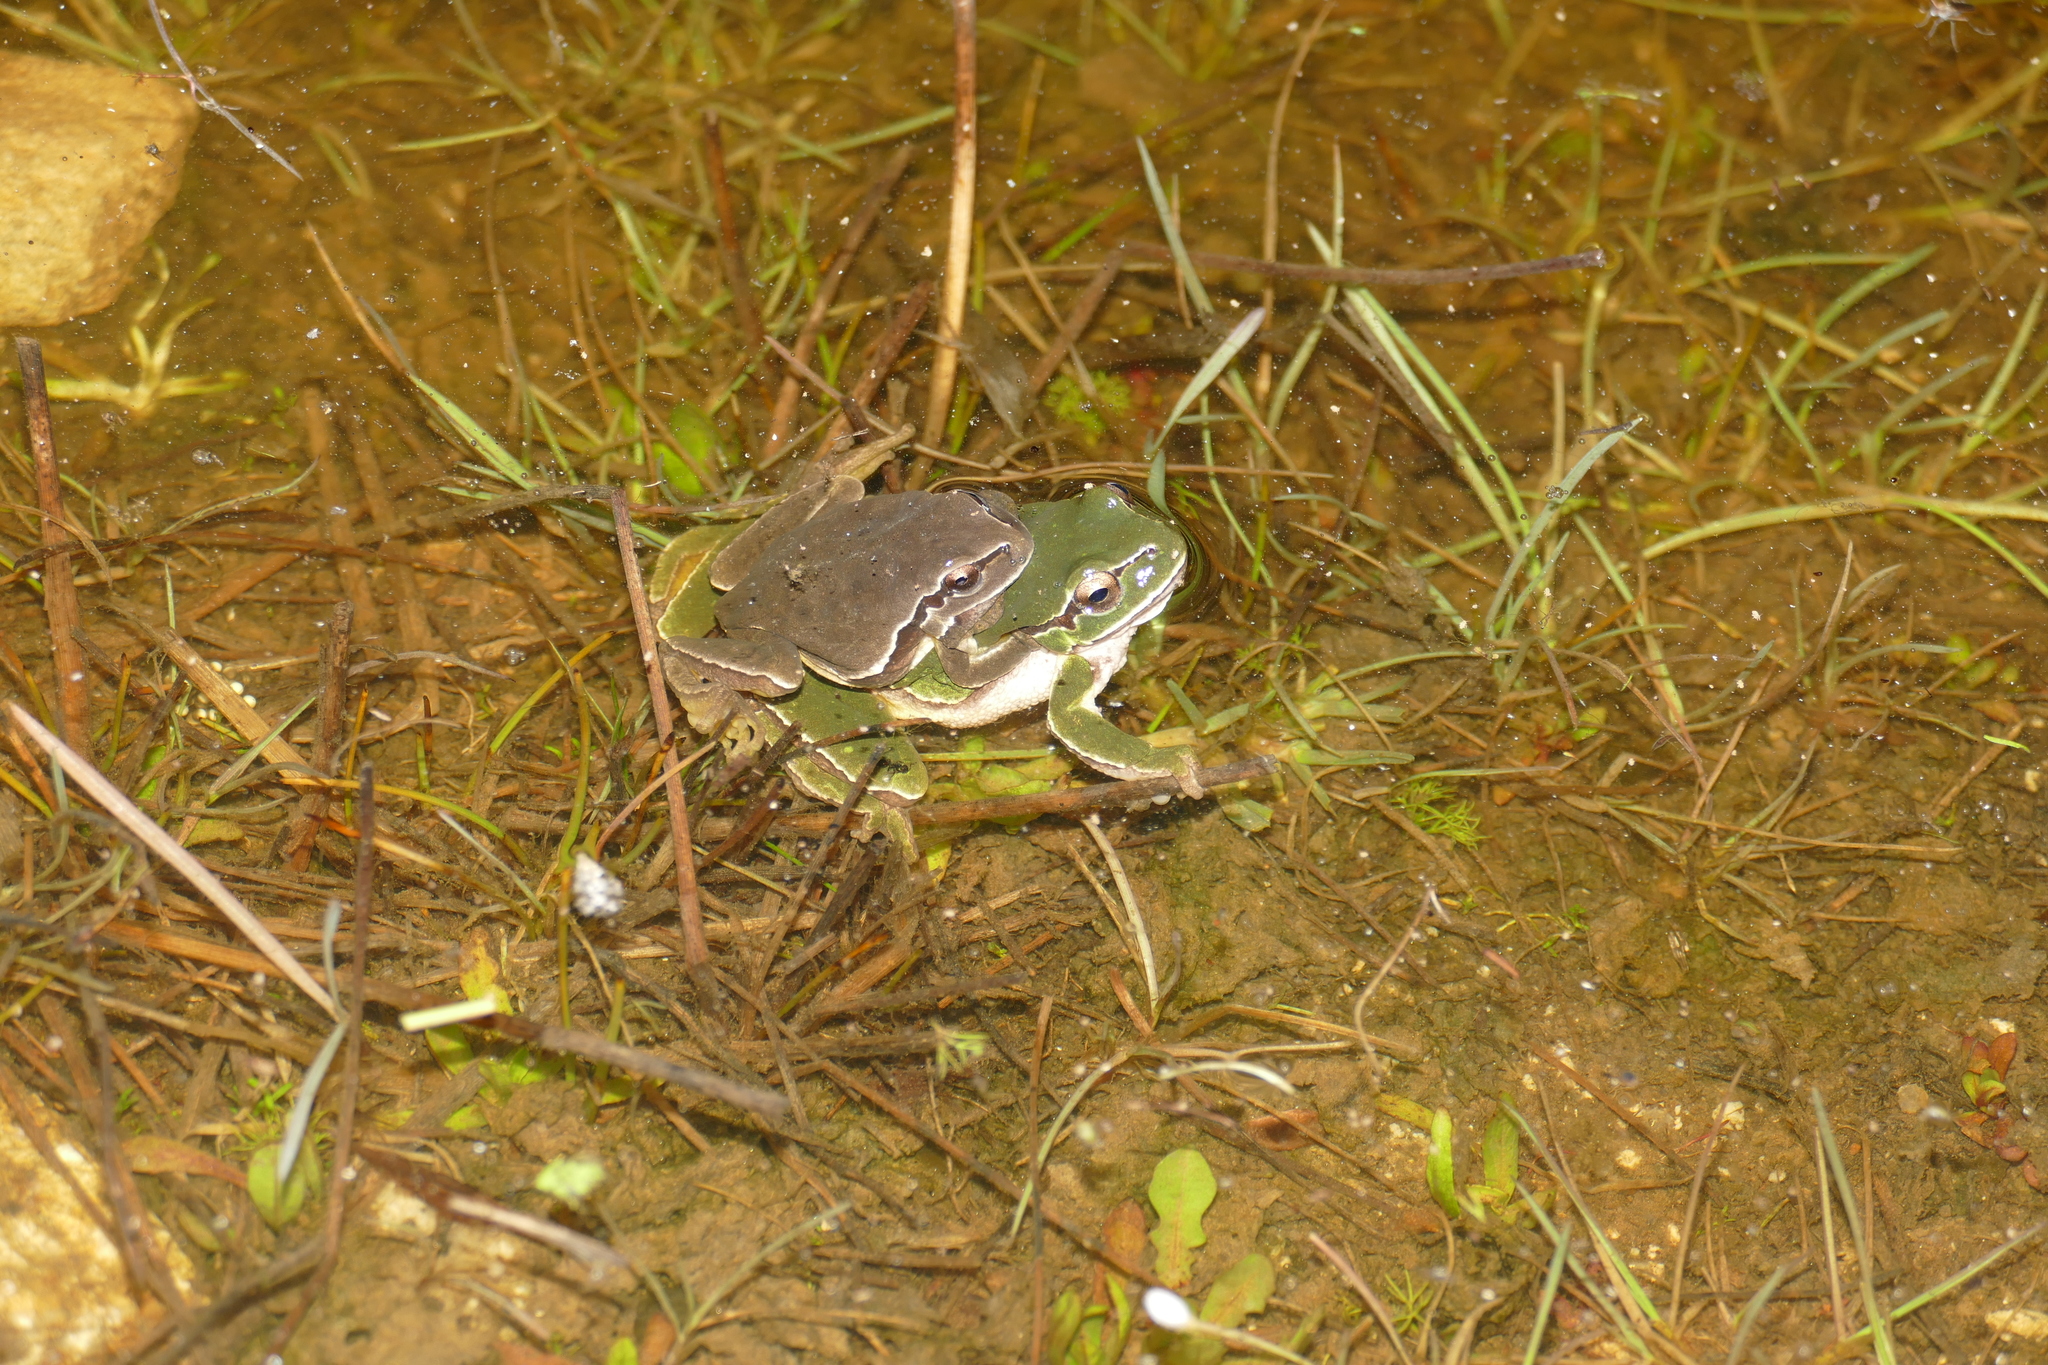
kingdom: Animalia
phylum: Chordata
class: Amphibia
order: Anura
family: Hylidae
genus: Hyla
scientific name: Hyla molleri
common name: Iberian tree frog
